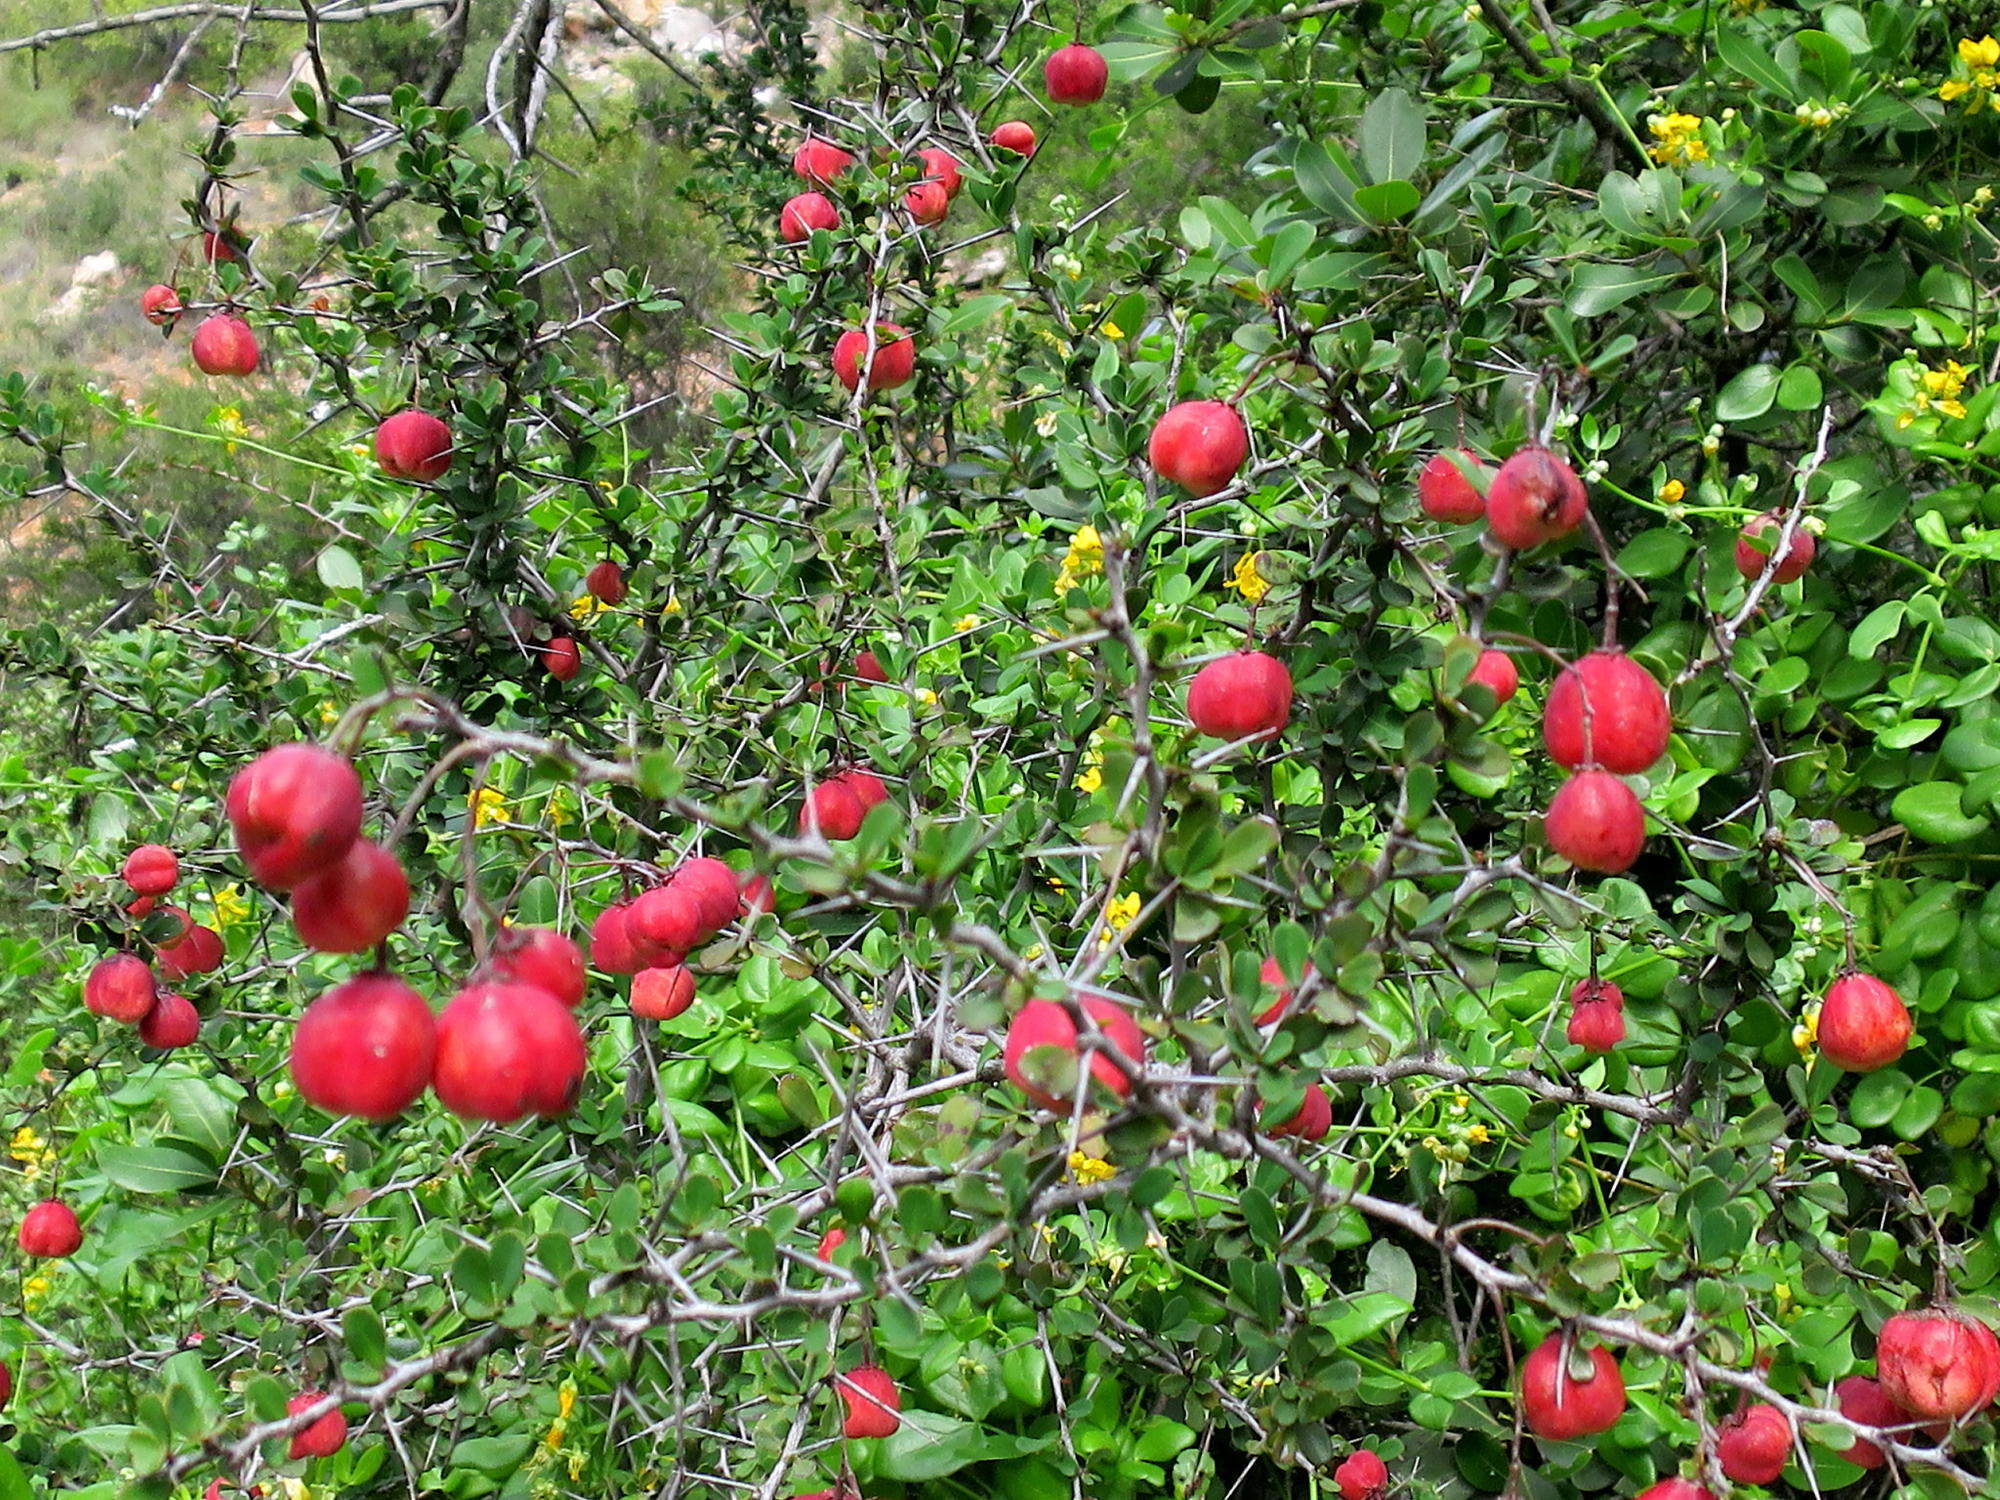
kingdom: Plantae
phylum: Tracheophyta
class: Magnoliopsida
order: Celastrales
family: Celastraceae
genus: Putterlickia
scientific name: Putterlickia pyracantha
